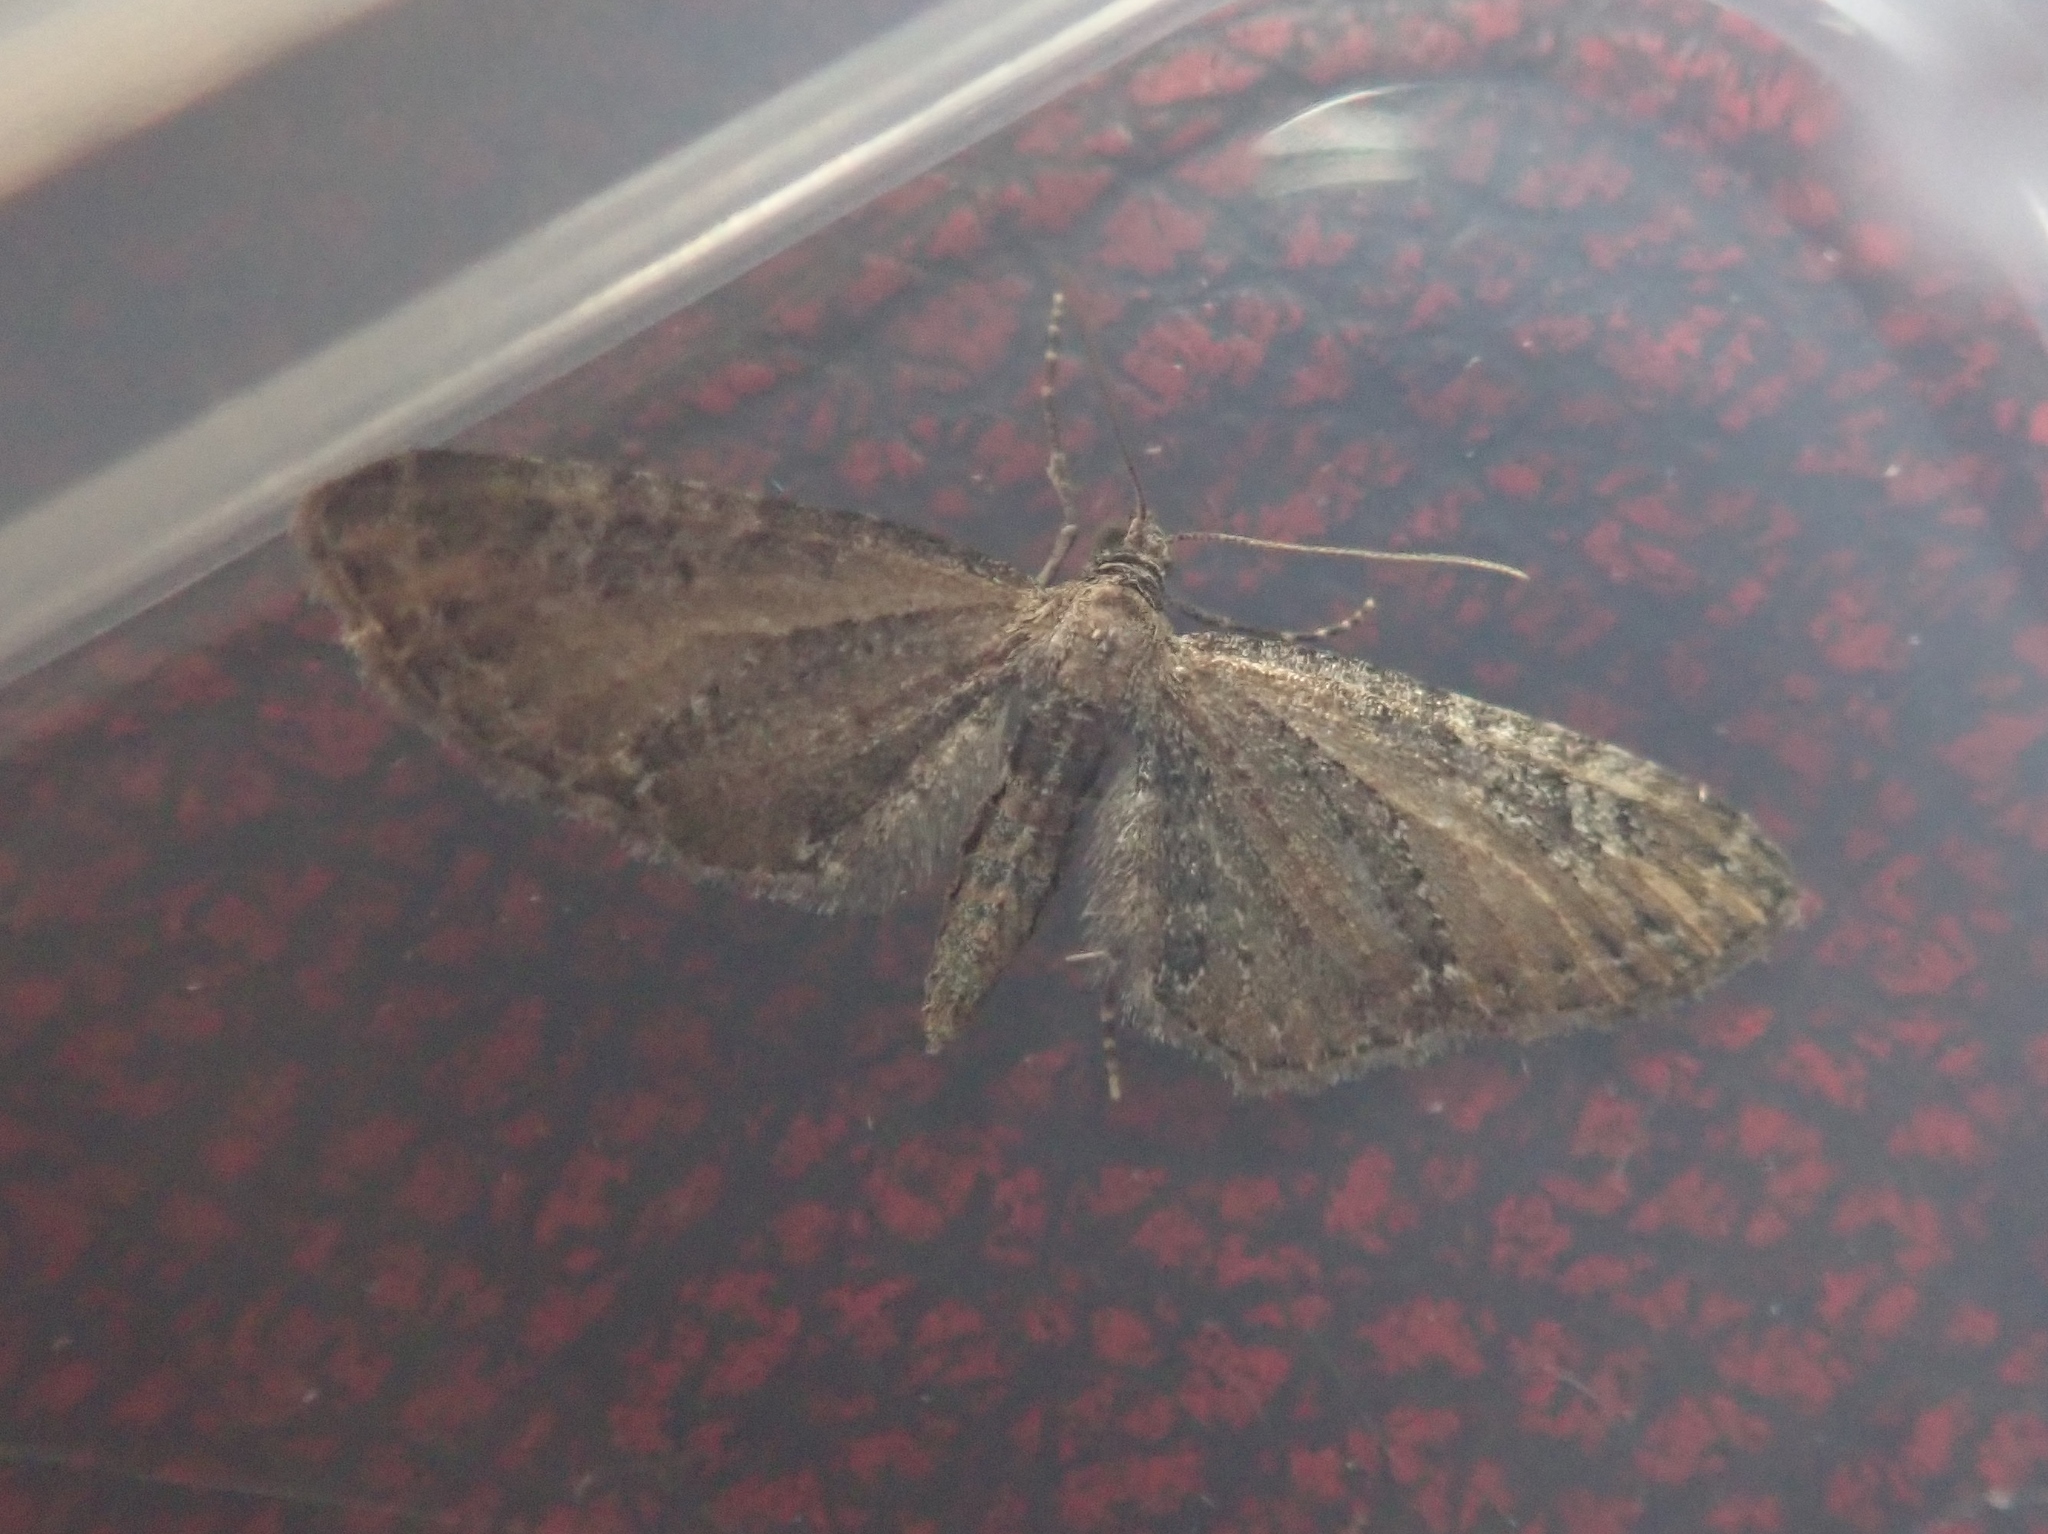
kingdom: Animalia
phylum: Arthropoda
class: Insecta
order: Lepidoptera
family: Geometridae
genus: Eupithecia
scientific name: Eupithecia vulgata
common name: Common pug
